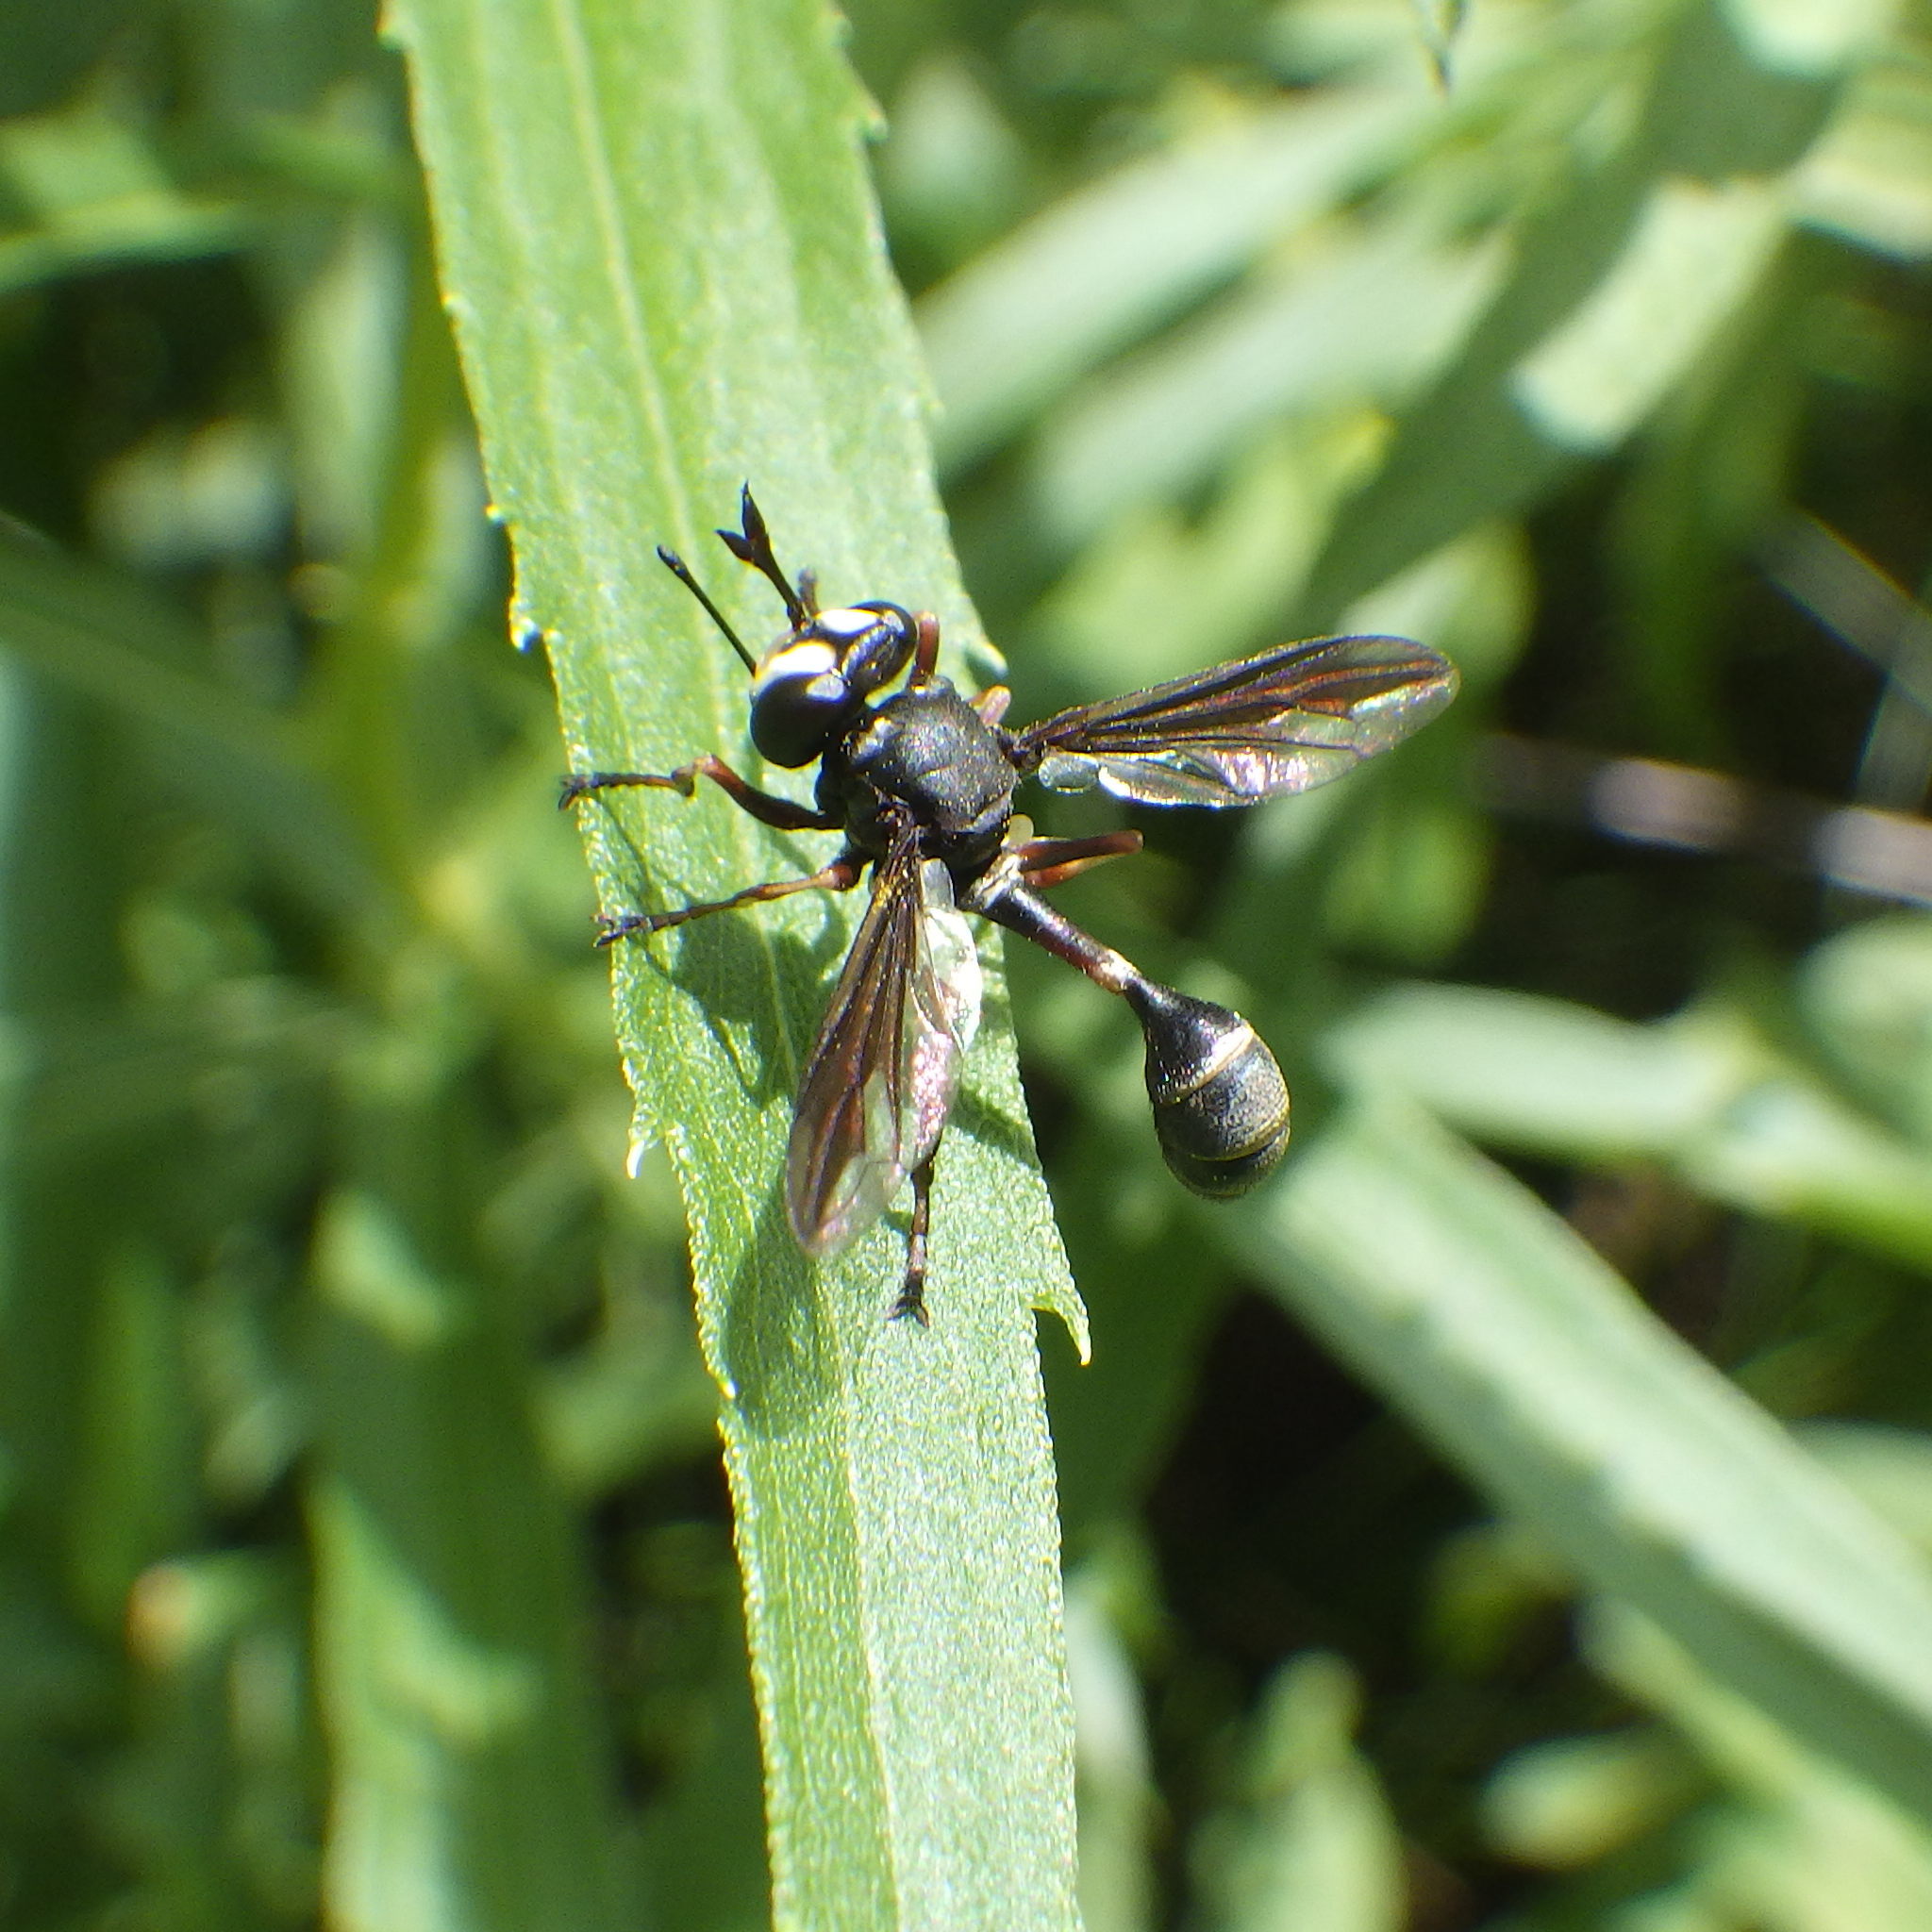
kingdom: Animalia
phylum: Arthropoda
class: Insecta
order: Diptera
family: Conopidae
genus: Physocephala
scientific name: Physocephala furcillata
